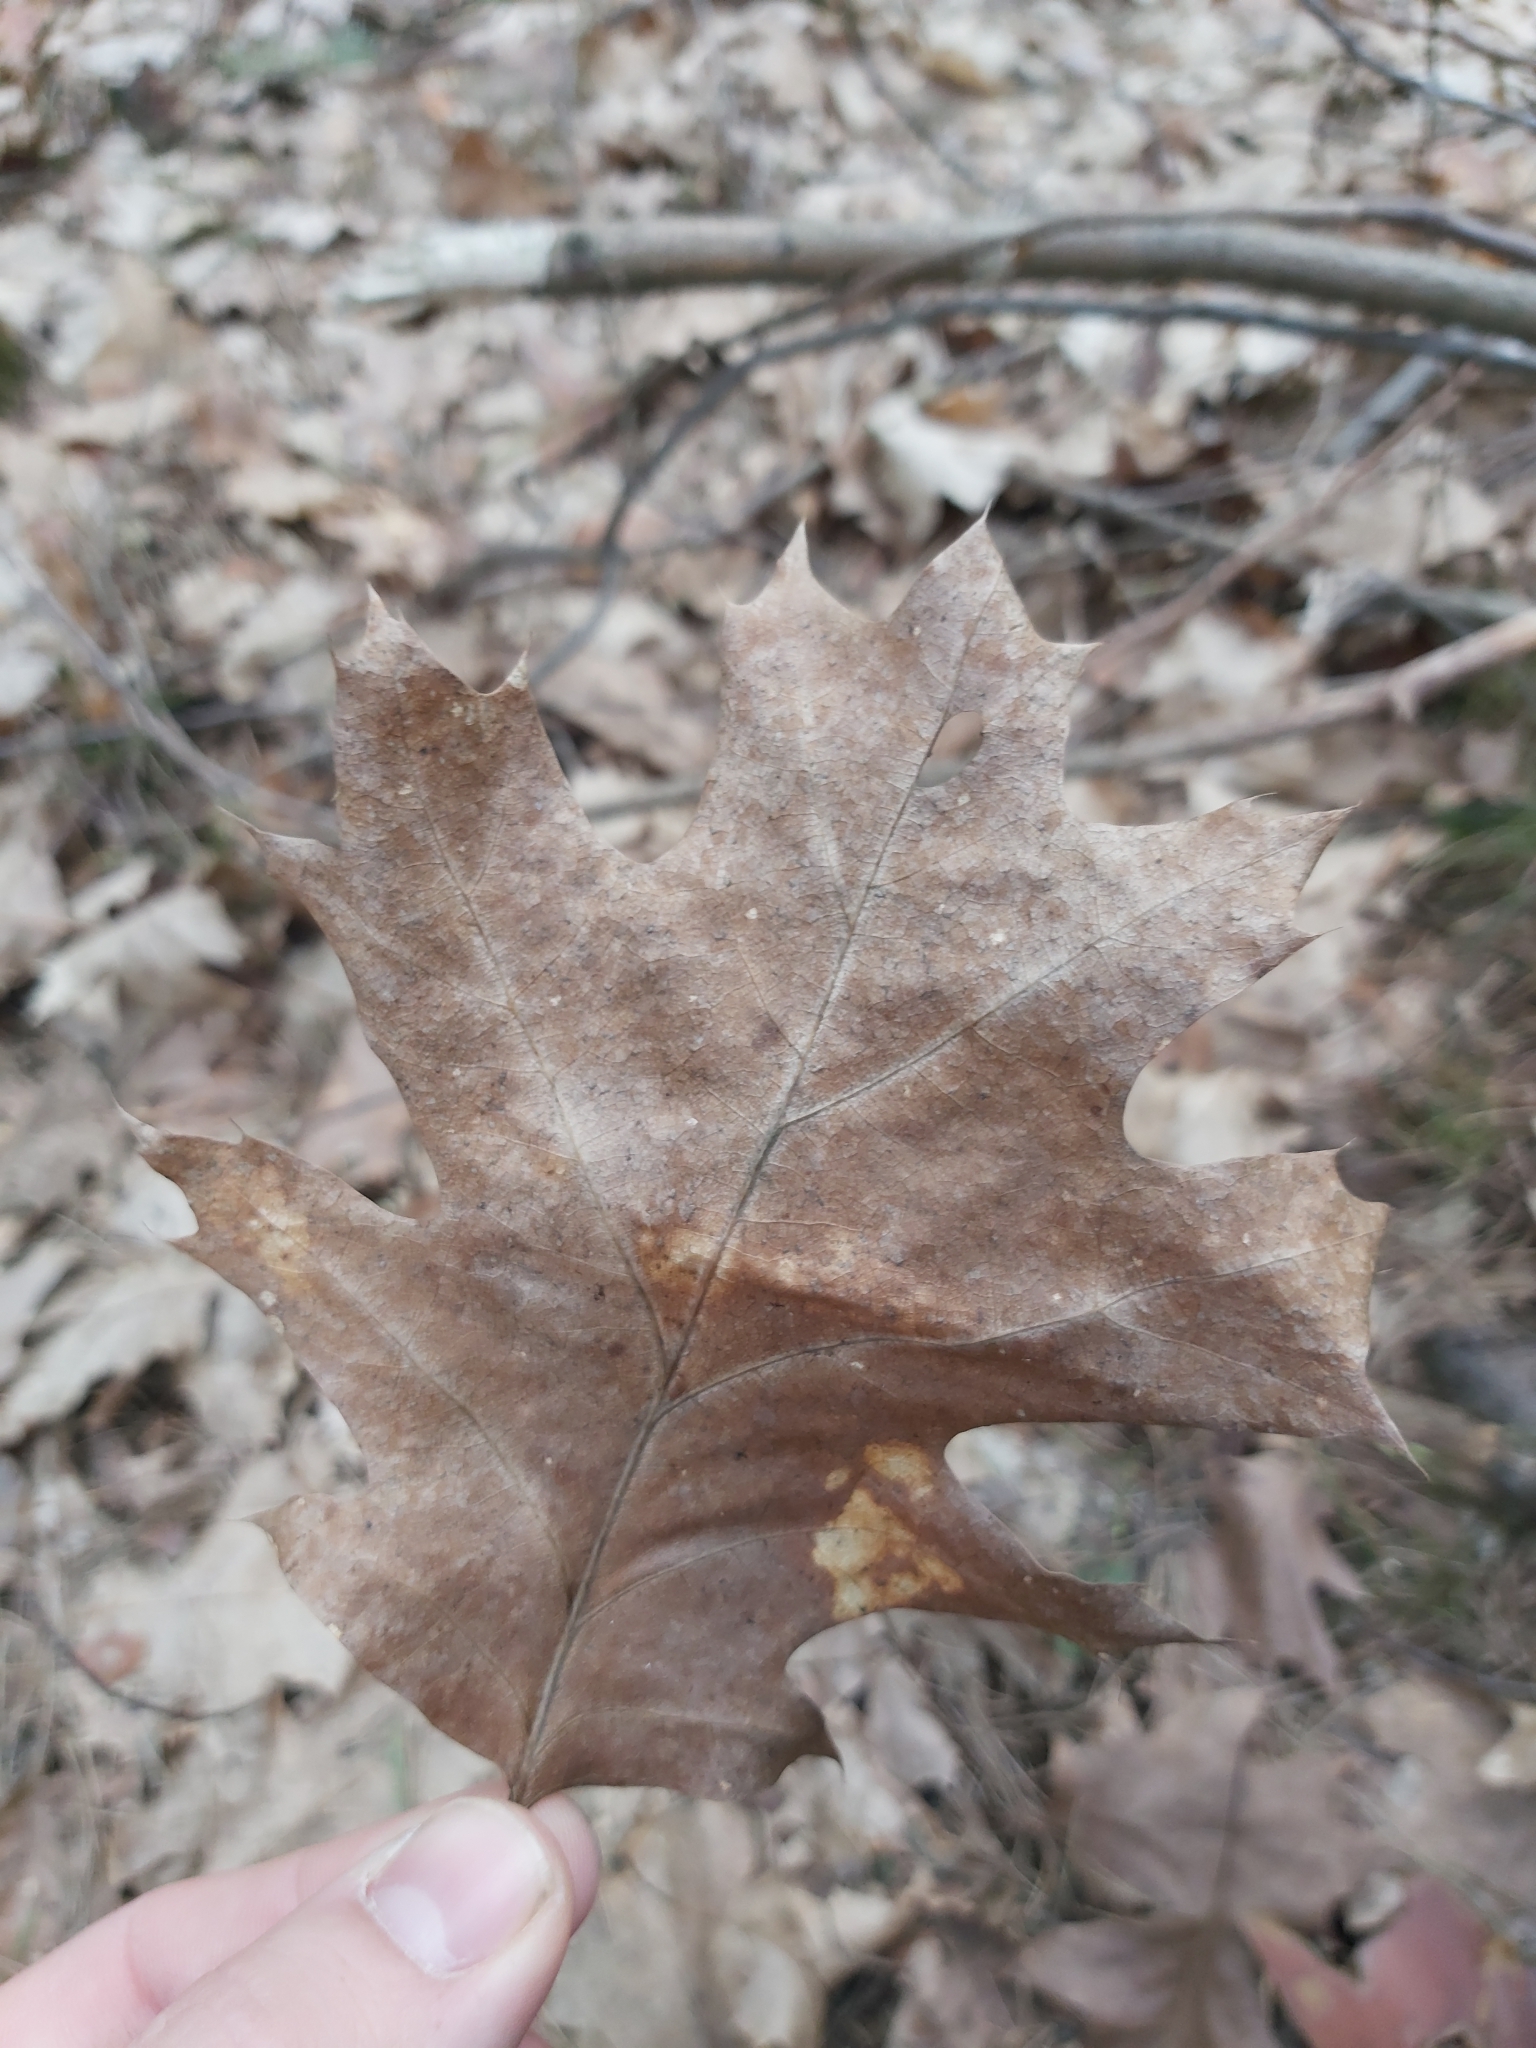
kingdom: Plantae
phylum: Tracheophyta
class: Magnoliopsida
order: Fagales
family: Fagaceae
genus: Quercus
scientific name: Quercus rubra
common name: Red oak
